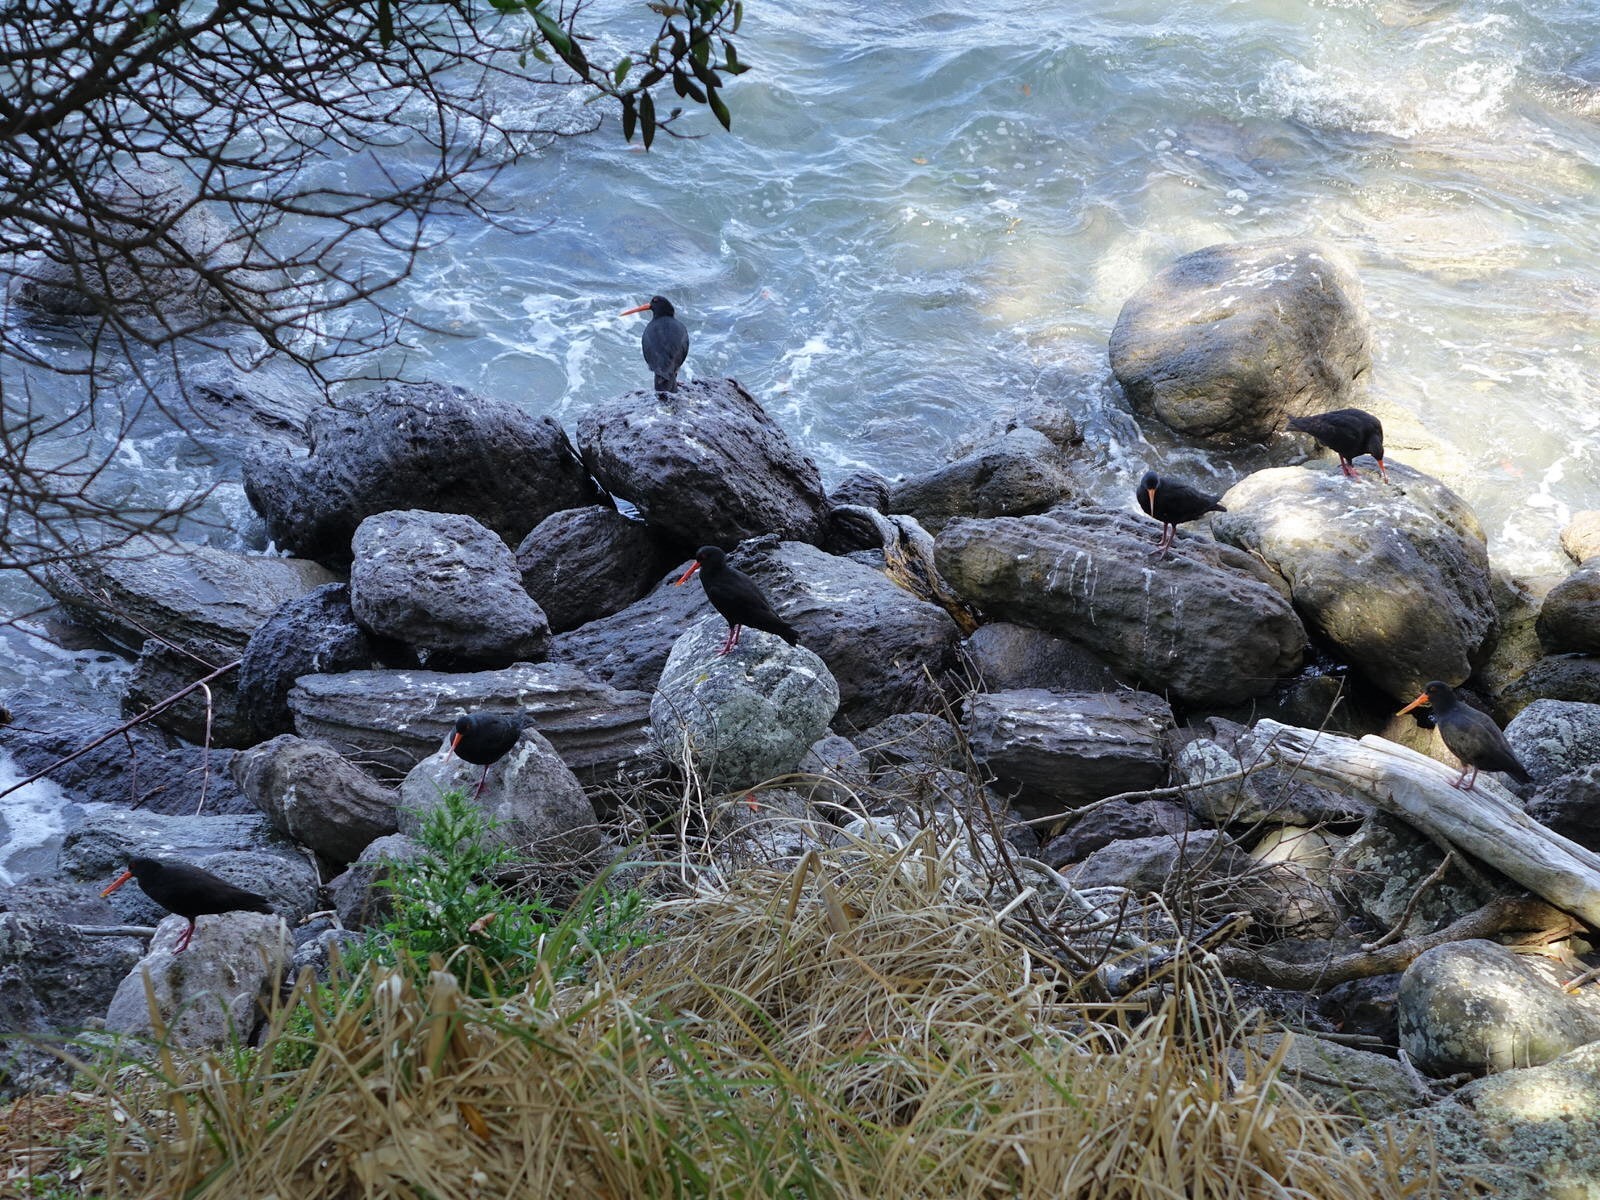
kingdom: Animalia
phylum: Chordata
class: Aves
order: Charadriiformes
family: Haematopodidae
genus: Haematopus
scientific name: Haematopus unicolor
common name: Variable oystercatcher
